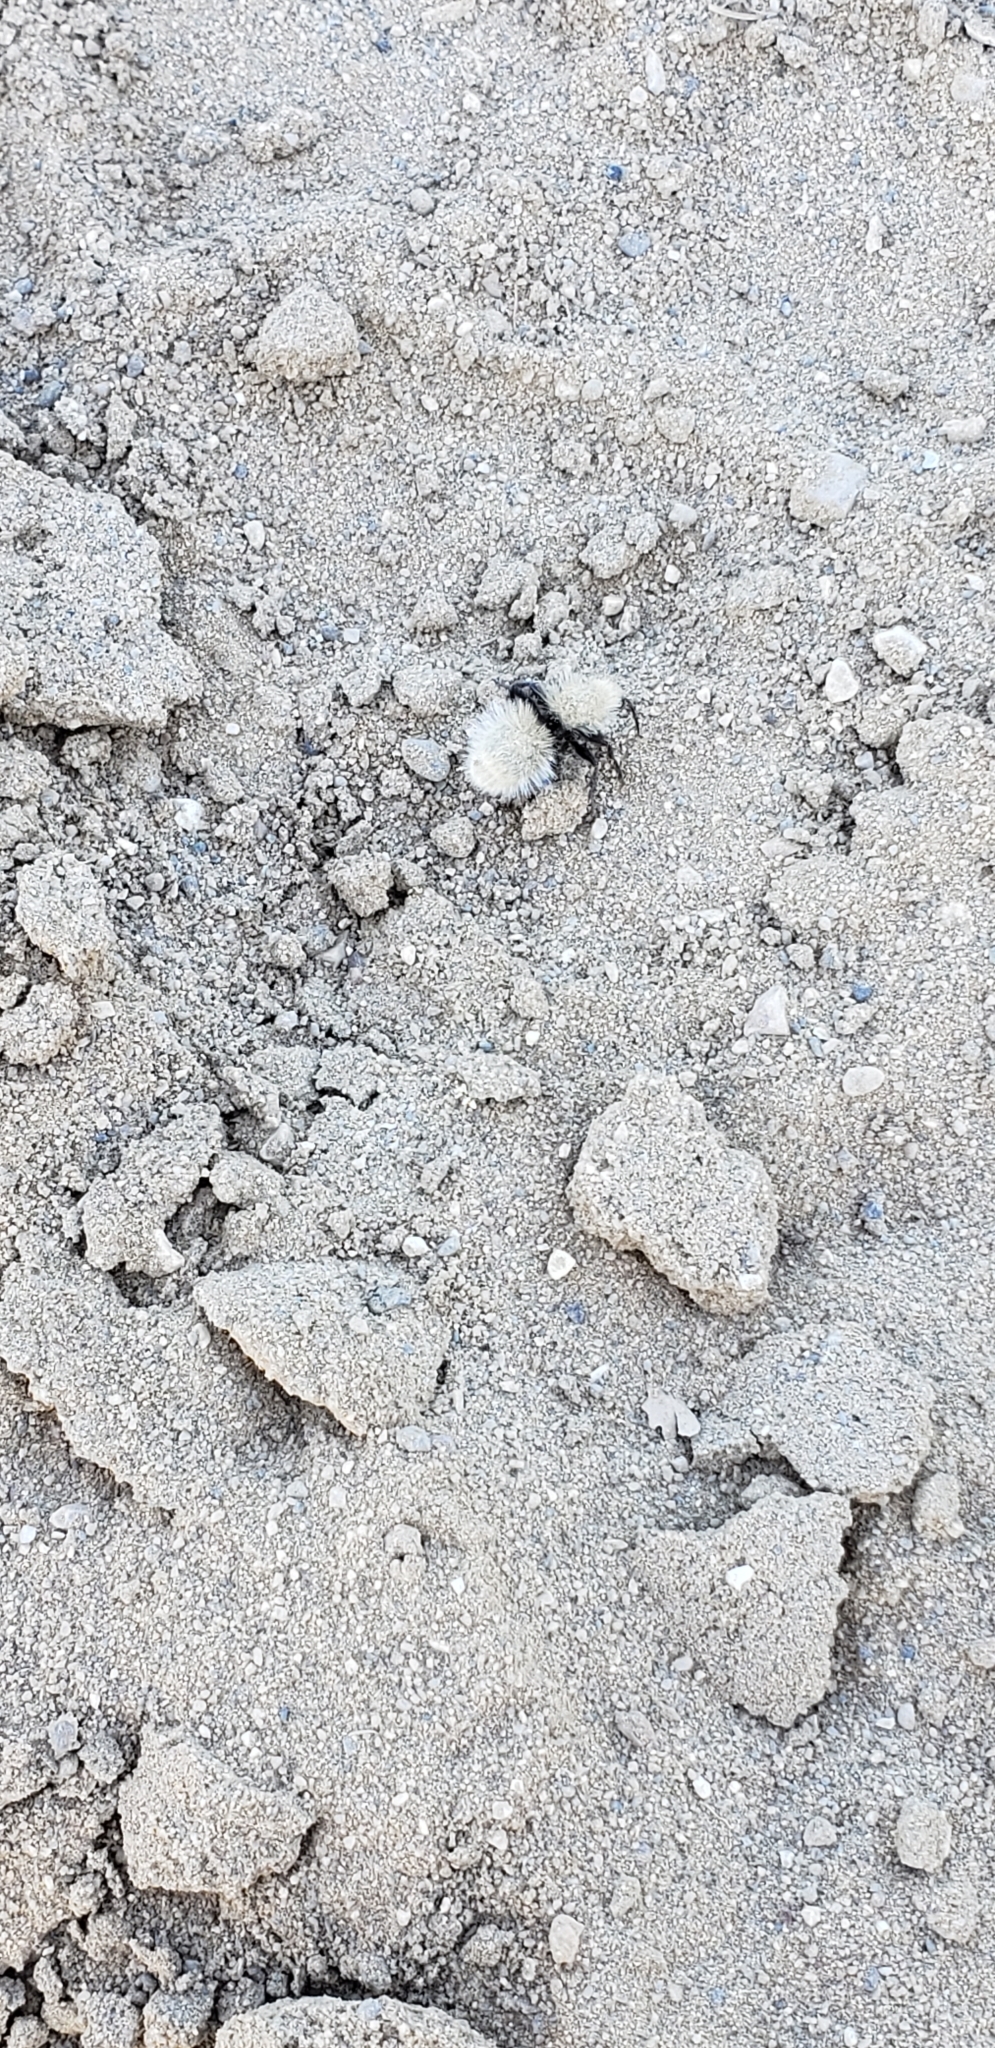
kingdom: Animalia
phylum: Arthropoda
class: Insecta
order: Hymenoptera
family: Mutillidae
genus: Dasymutilla
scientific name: Dasymutilla
